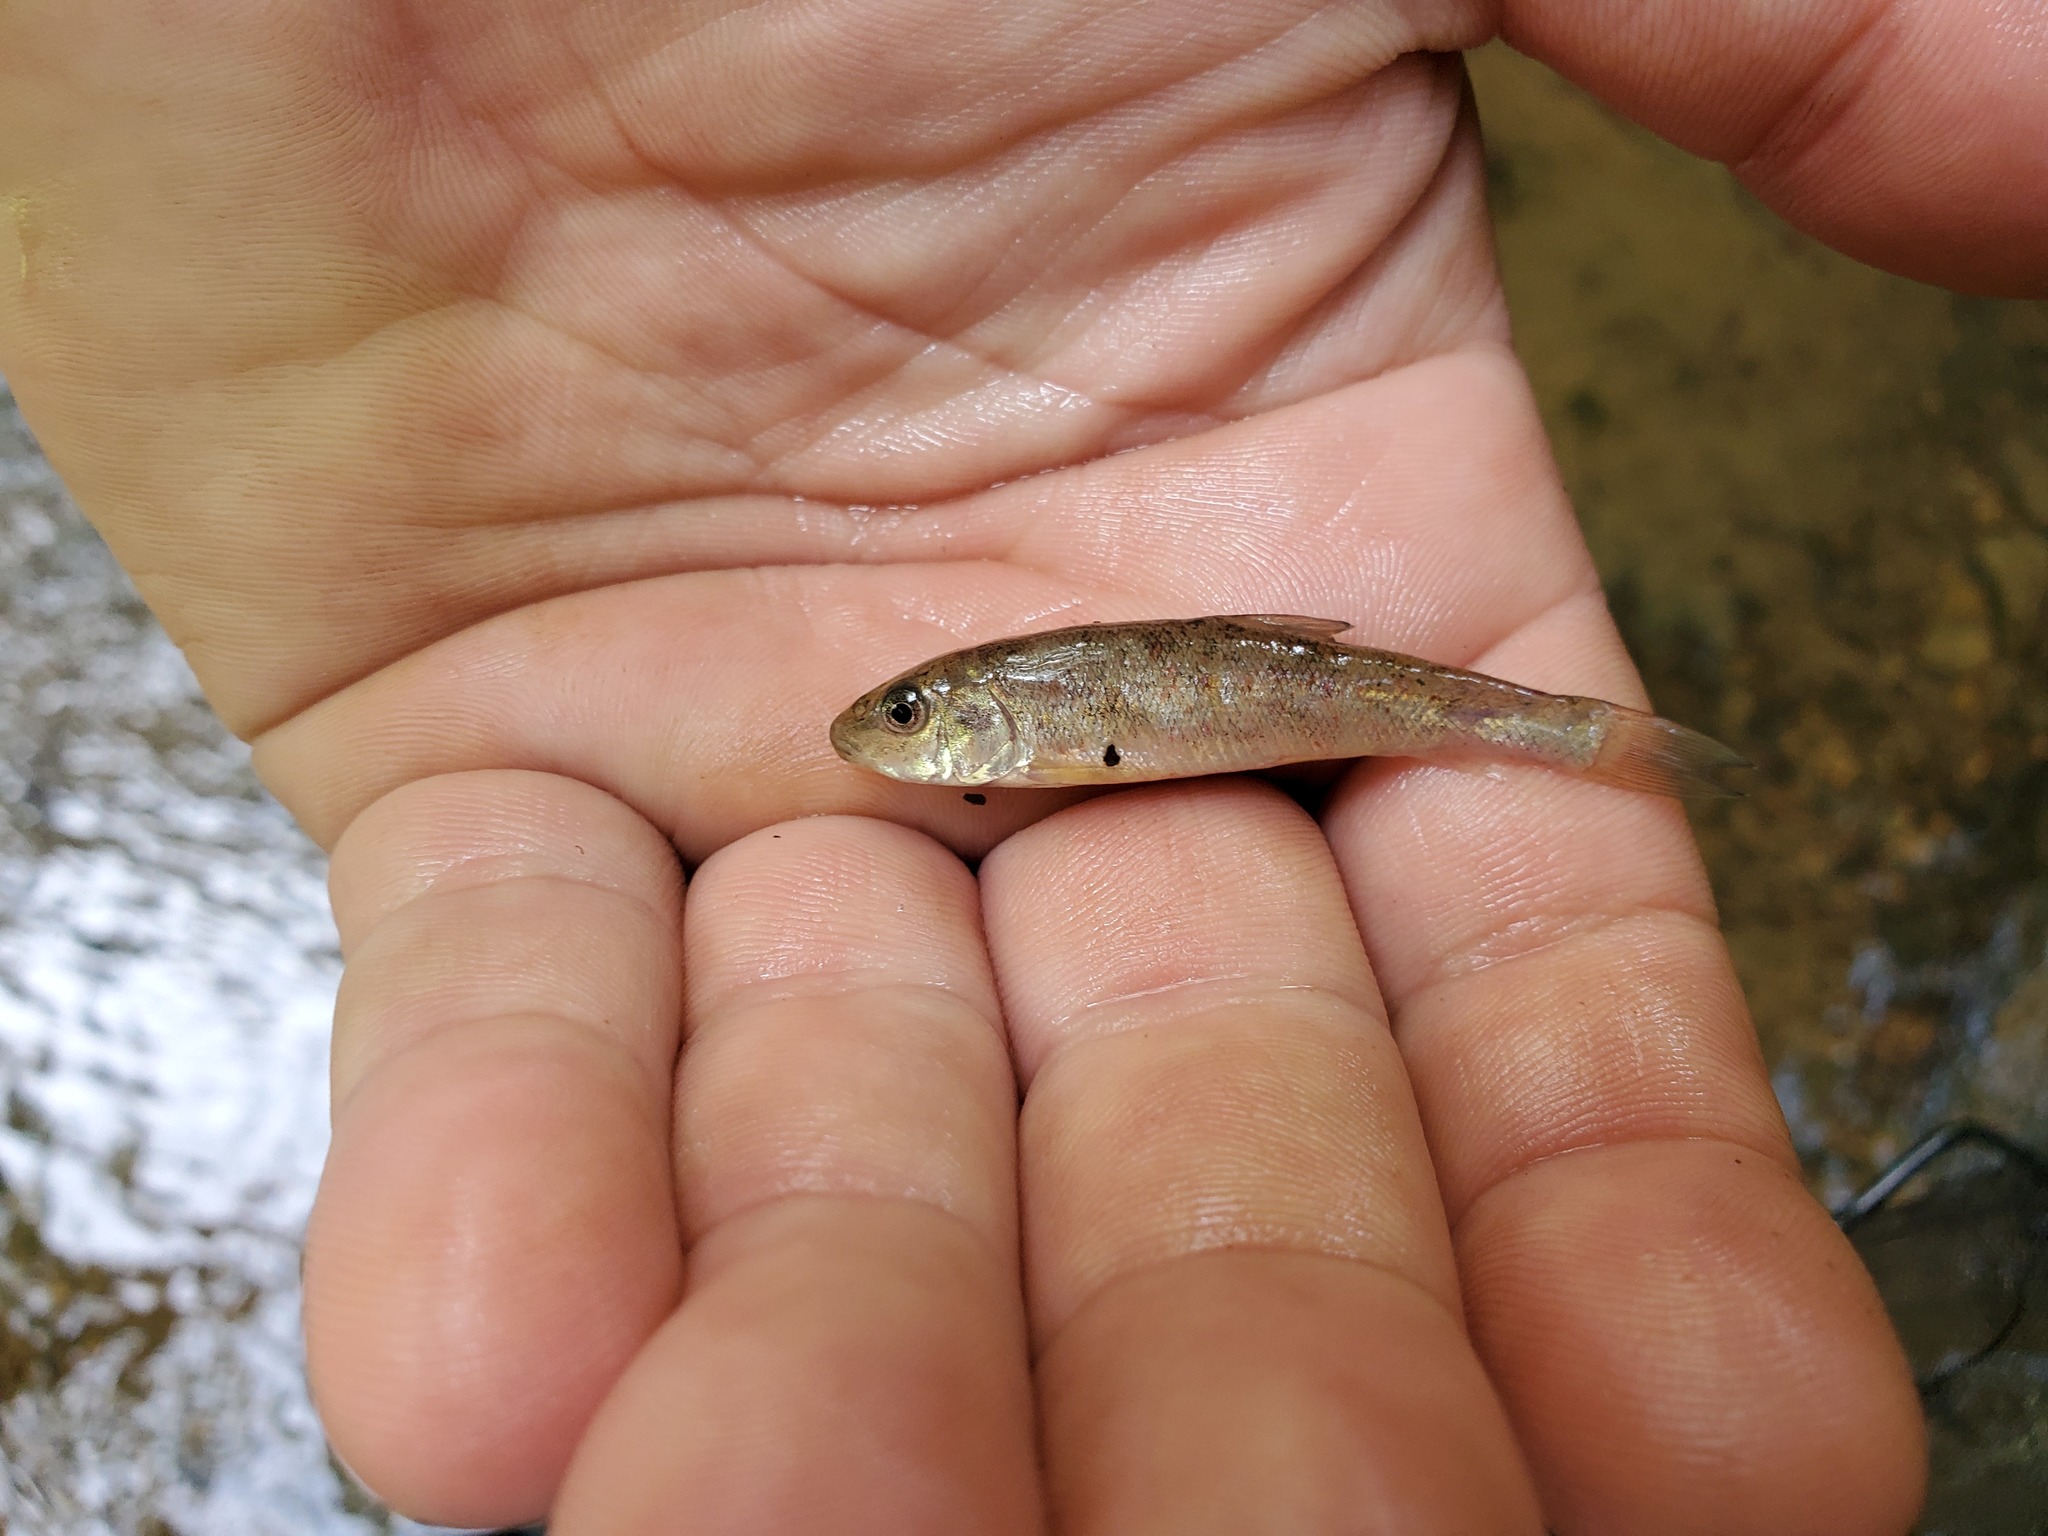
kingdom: Animalia
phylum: Chordata
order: Cypriniformes
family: Catostomidae
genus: Catostomus
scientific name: Catostomus commersonii
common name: White sucker
